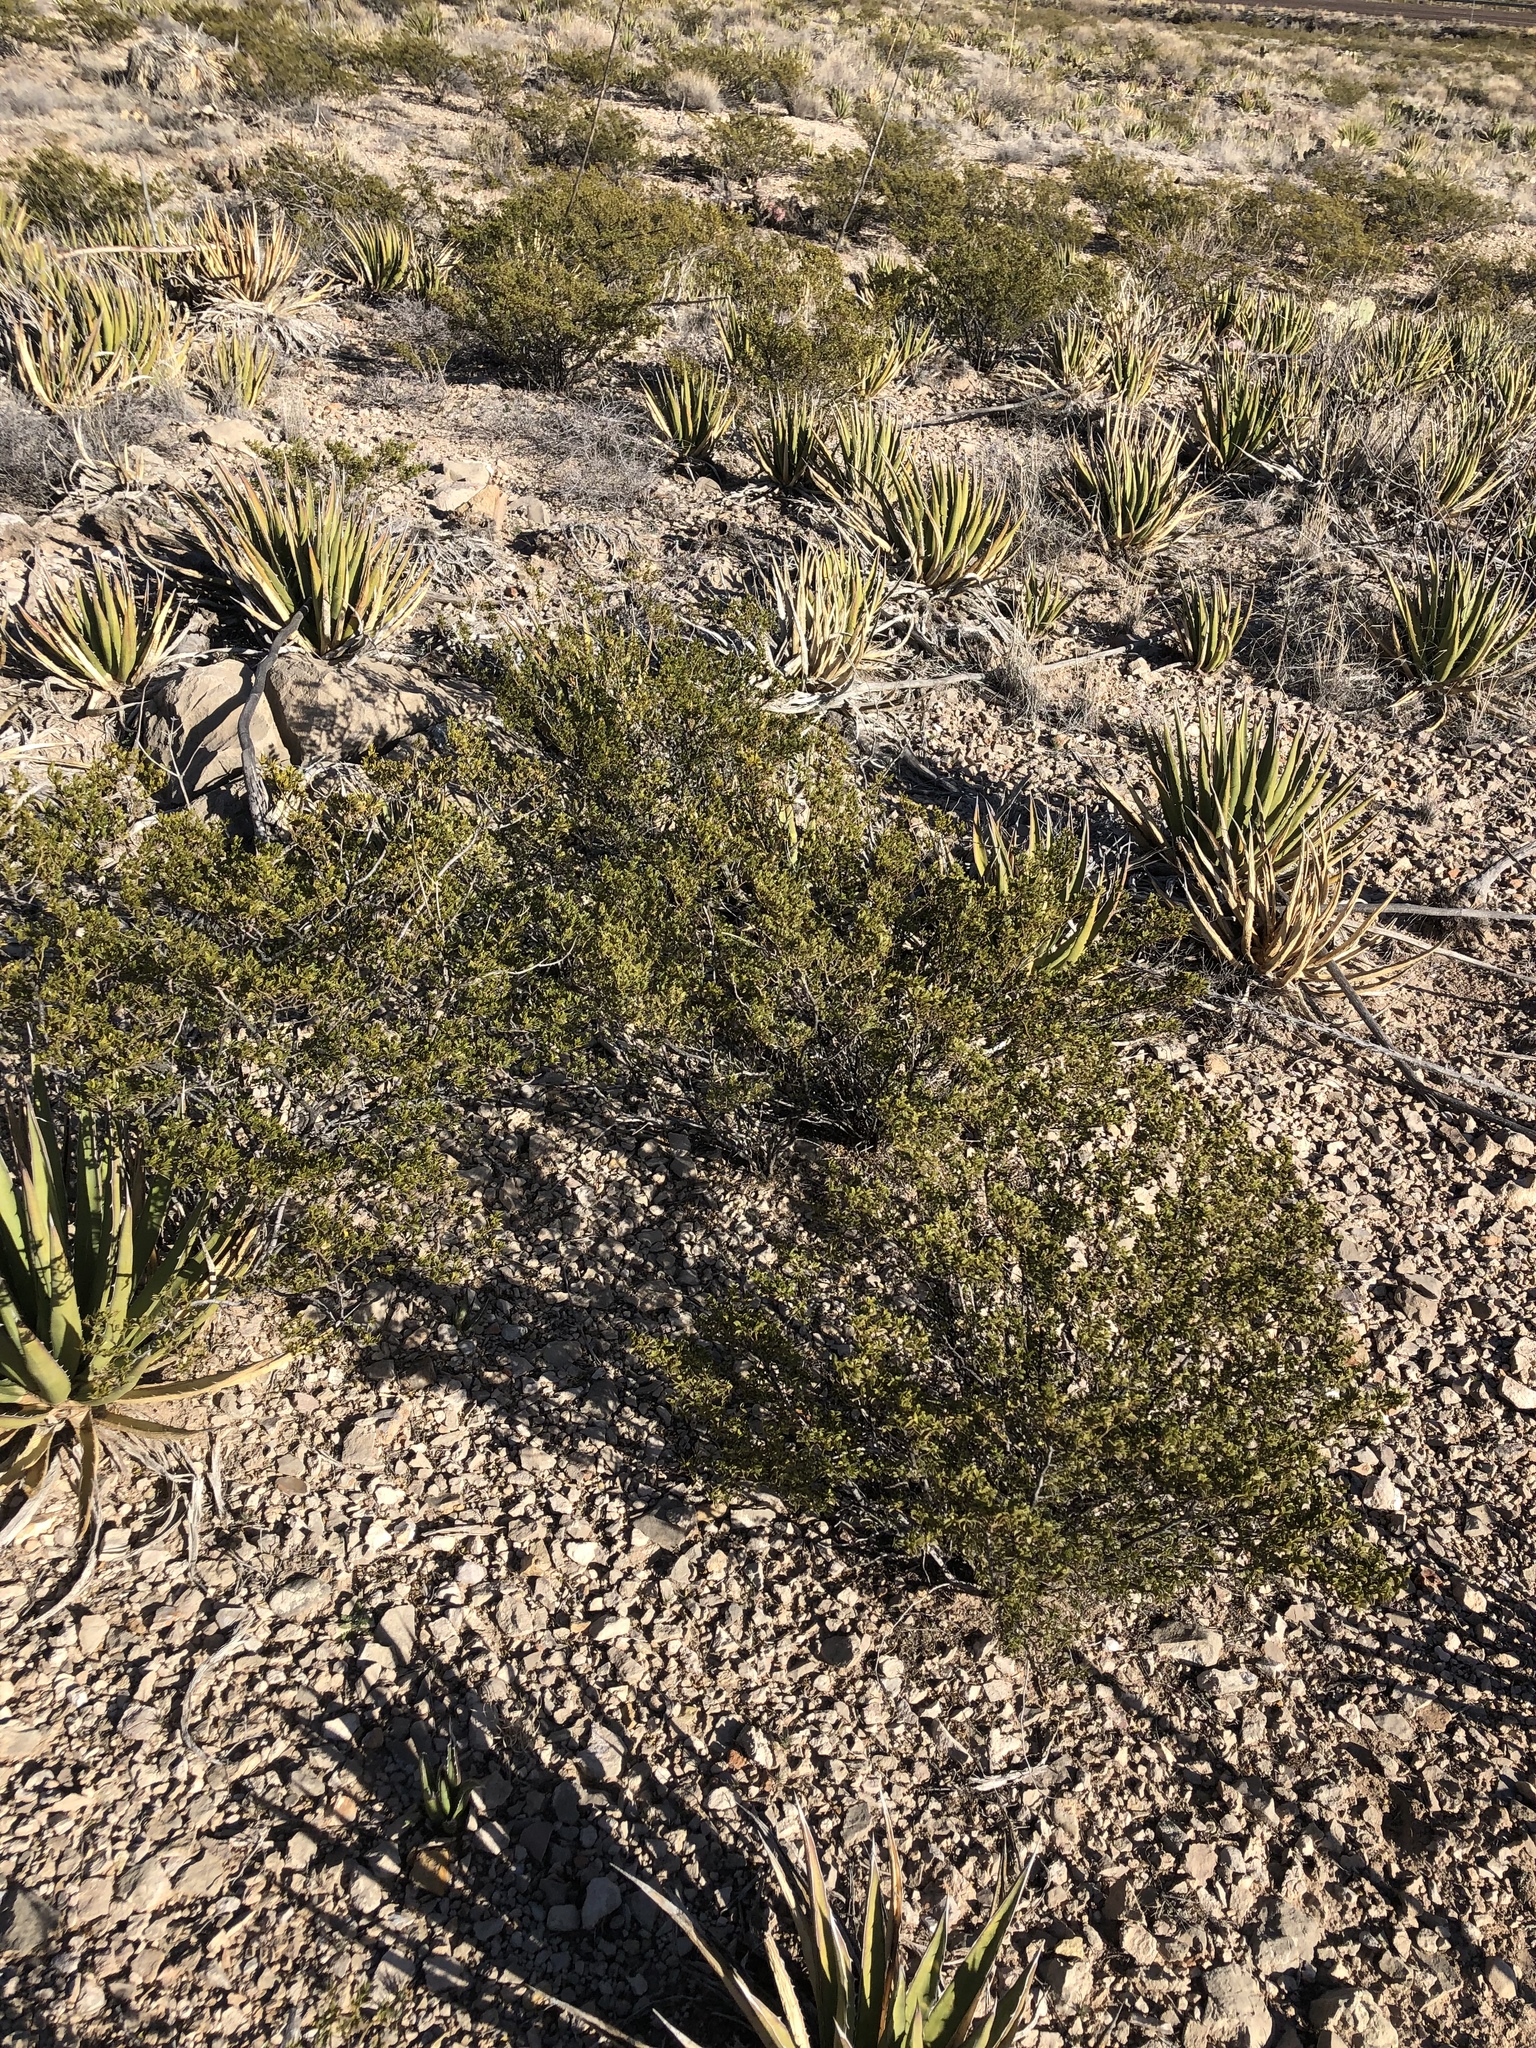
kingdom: Plantae
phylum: Tracheophyta
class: Magnoliopsida
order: Zygophyllales
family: Zygophyllaceae
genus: Larrea
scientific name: Larrea tridentata
